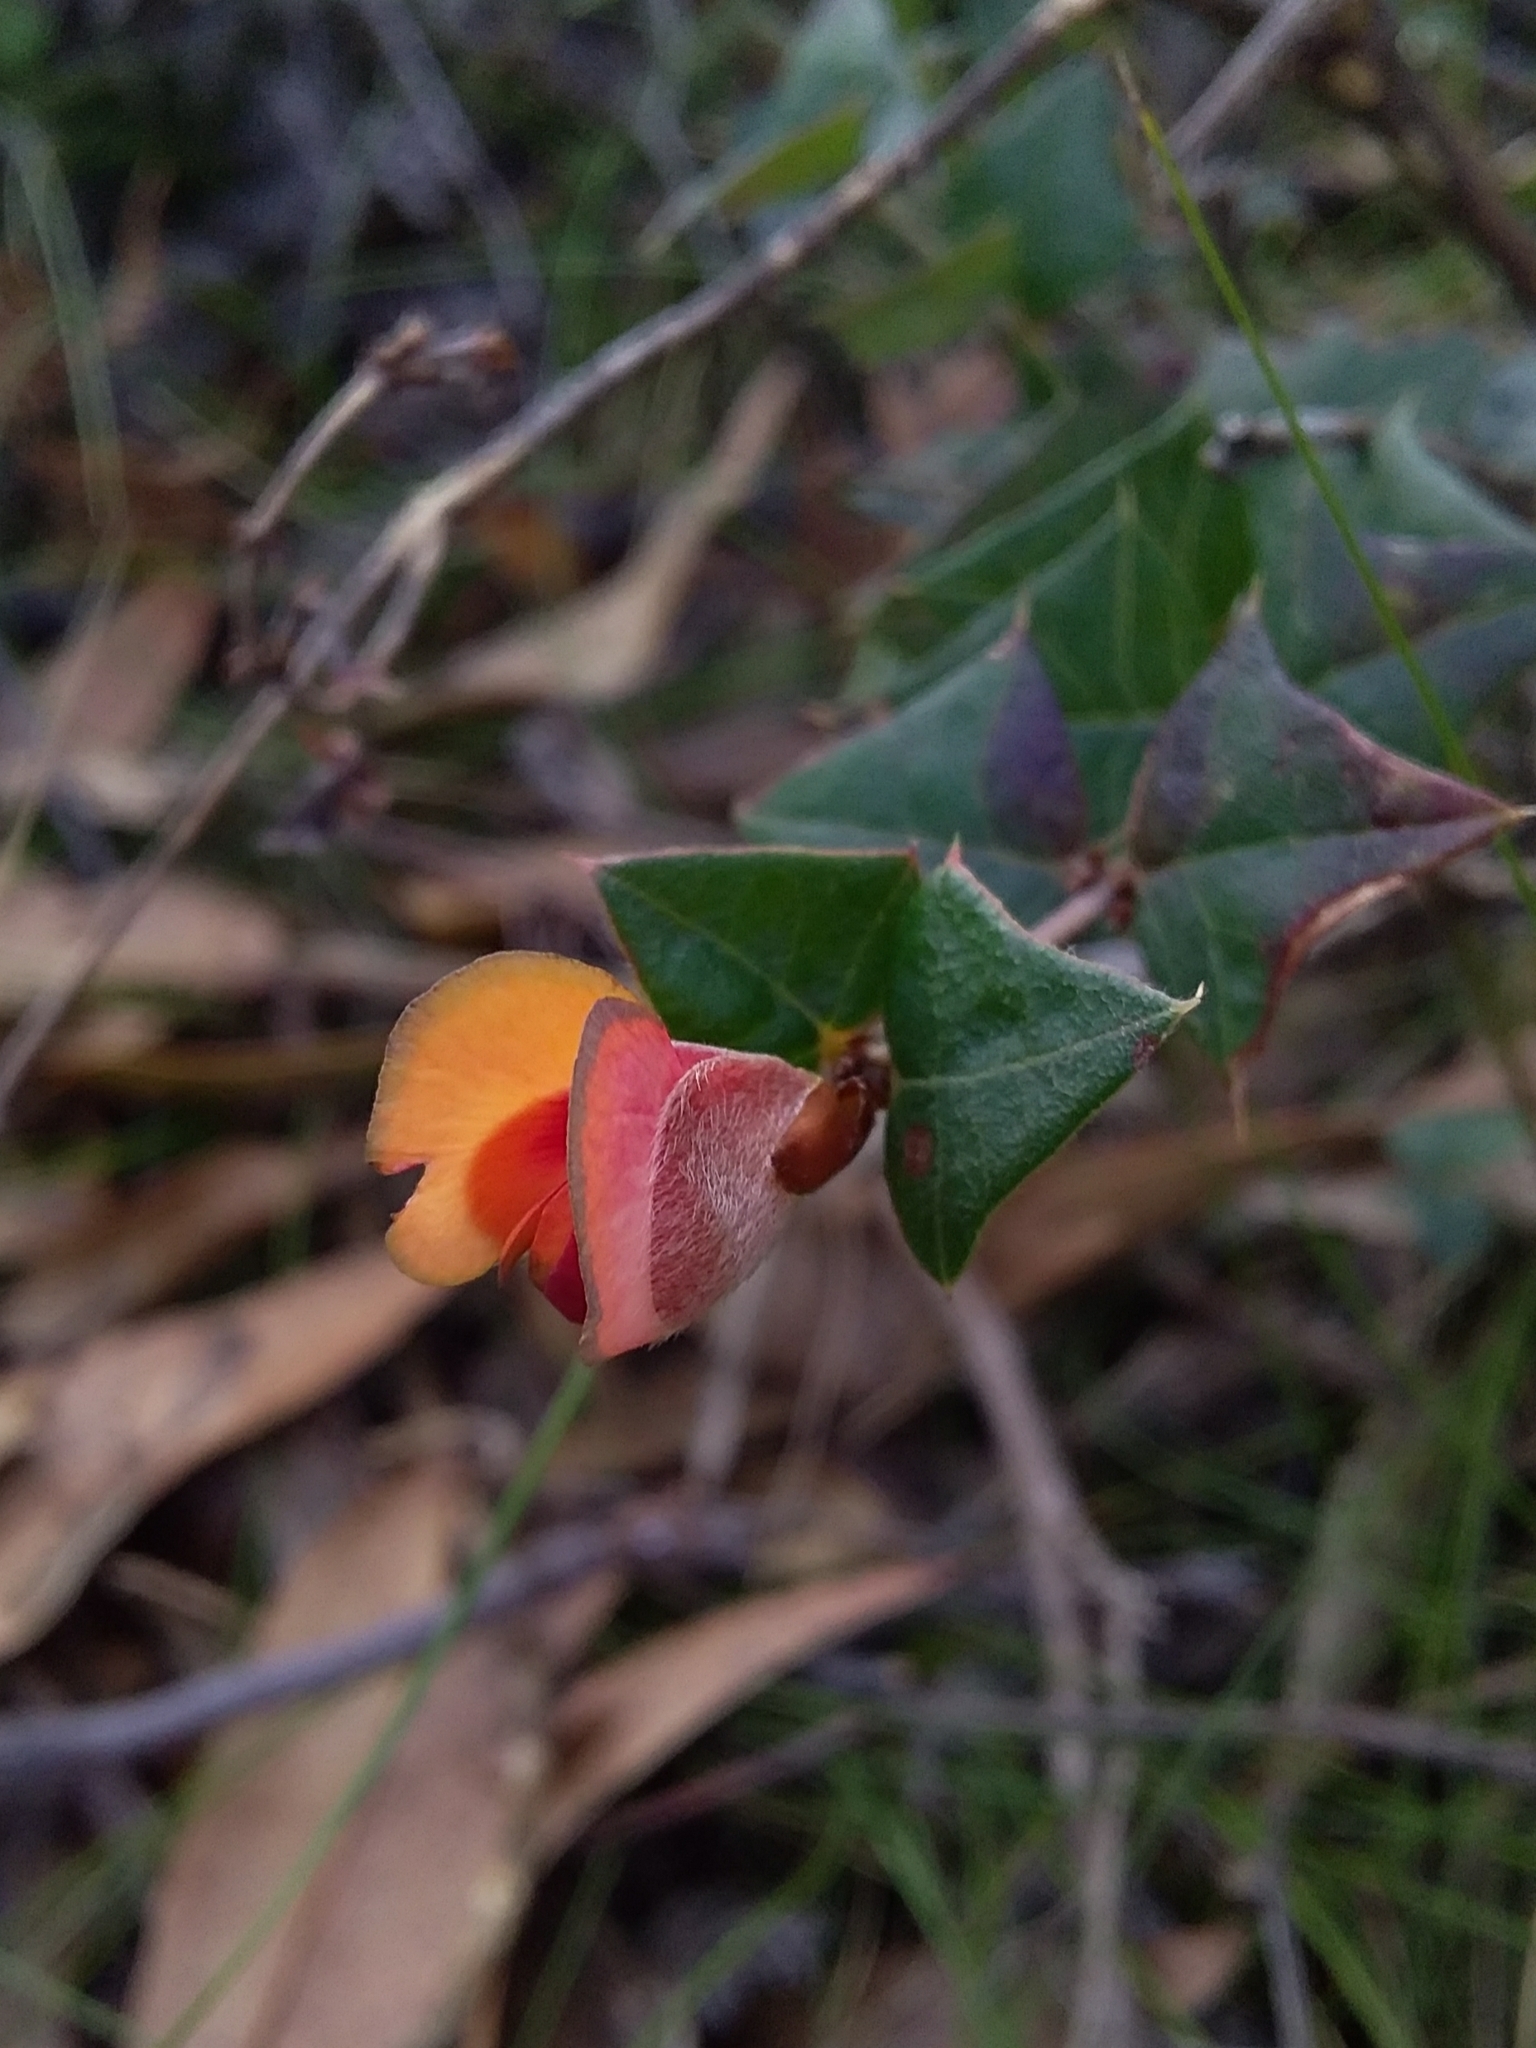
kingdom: Plantae
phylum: Tracheophyta
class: Magnoliopsida
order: Fabales
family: Fabaceae
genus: Platylobium
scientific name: Platylobium obtusangulum
